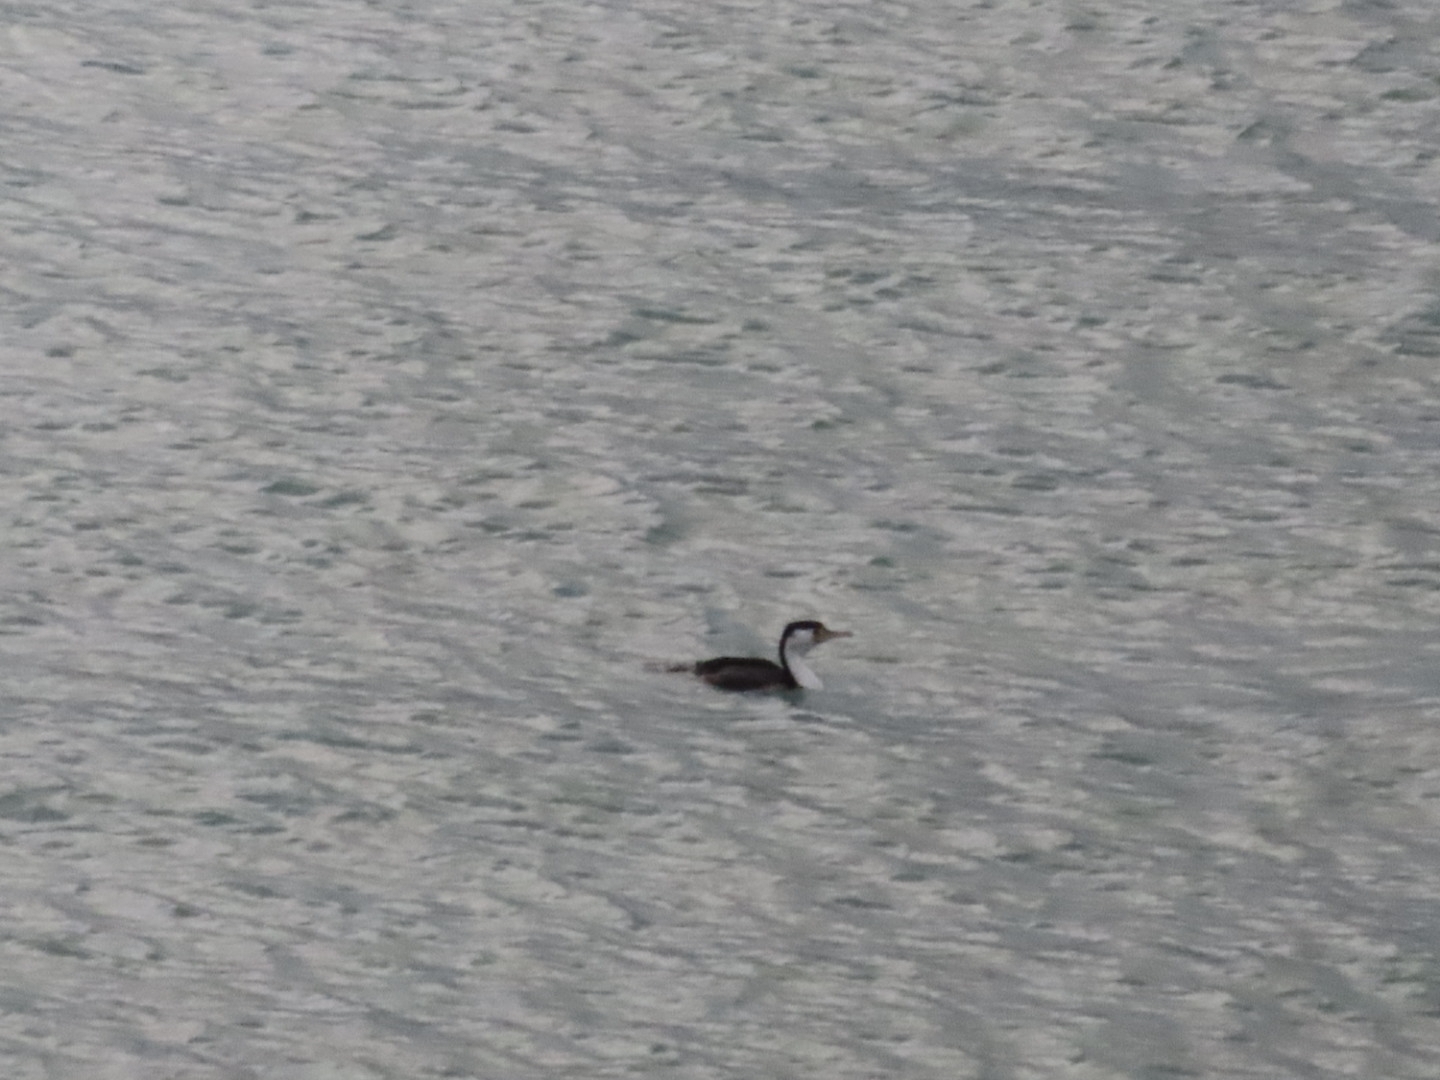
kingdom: Animalia
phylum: Chordata
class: Aves
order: Suliformes
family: Phalacrocoracidae
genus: Phalacrocorax
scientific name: Phalacrocorax varius
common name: Pied cormorant
